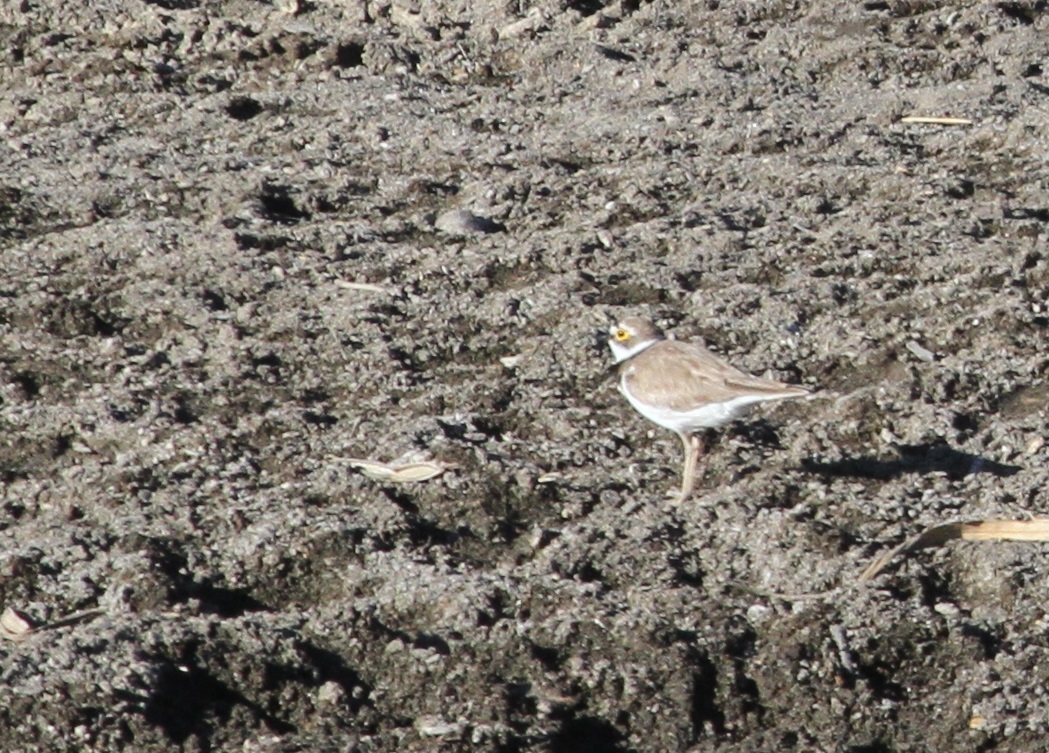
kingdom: Animalia
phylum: Chordata
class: Aves
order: Charadriiformes
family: Charadriidae
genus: Charadrius
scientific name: Charadrius dubius
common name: Little ringed plover
